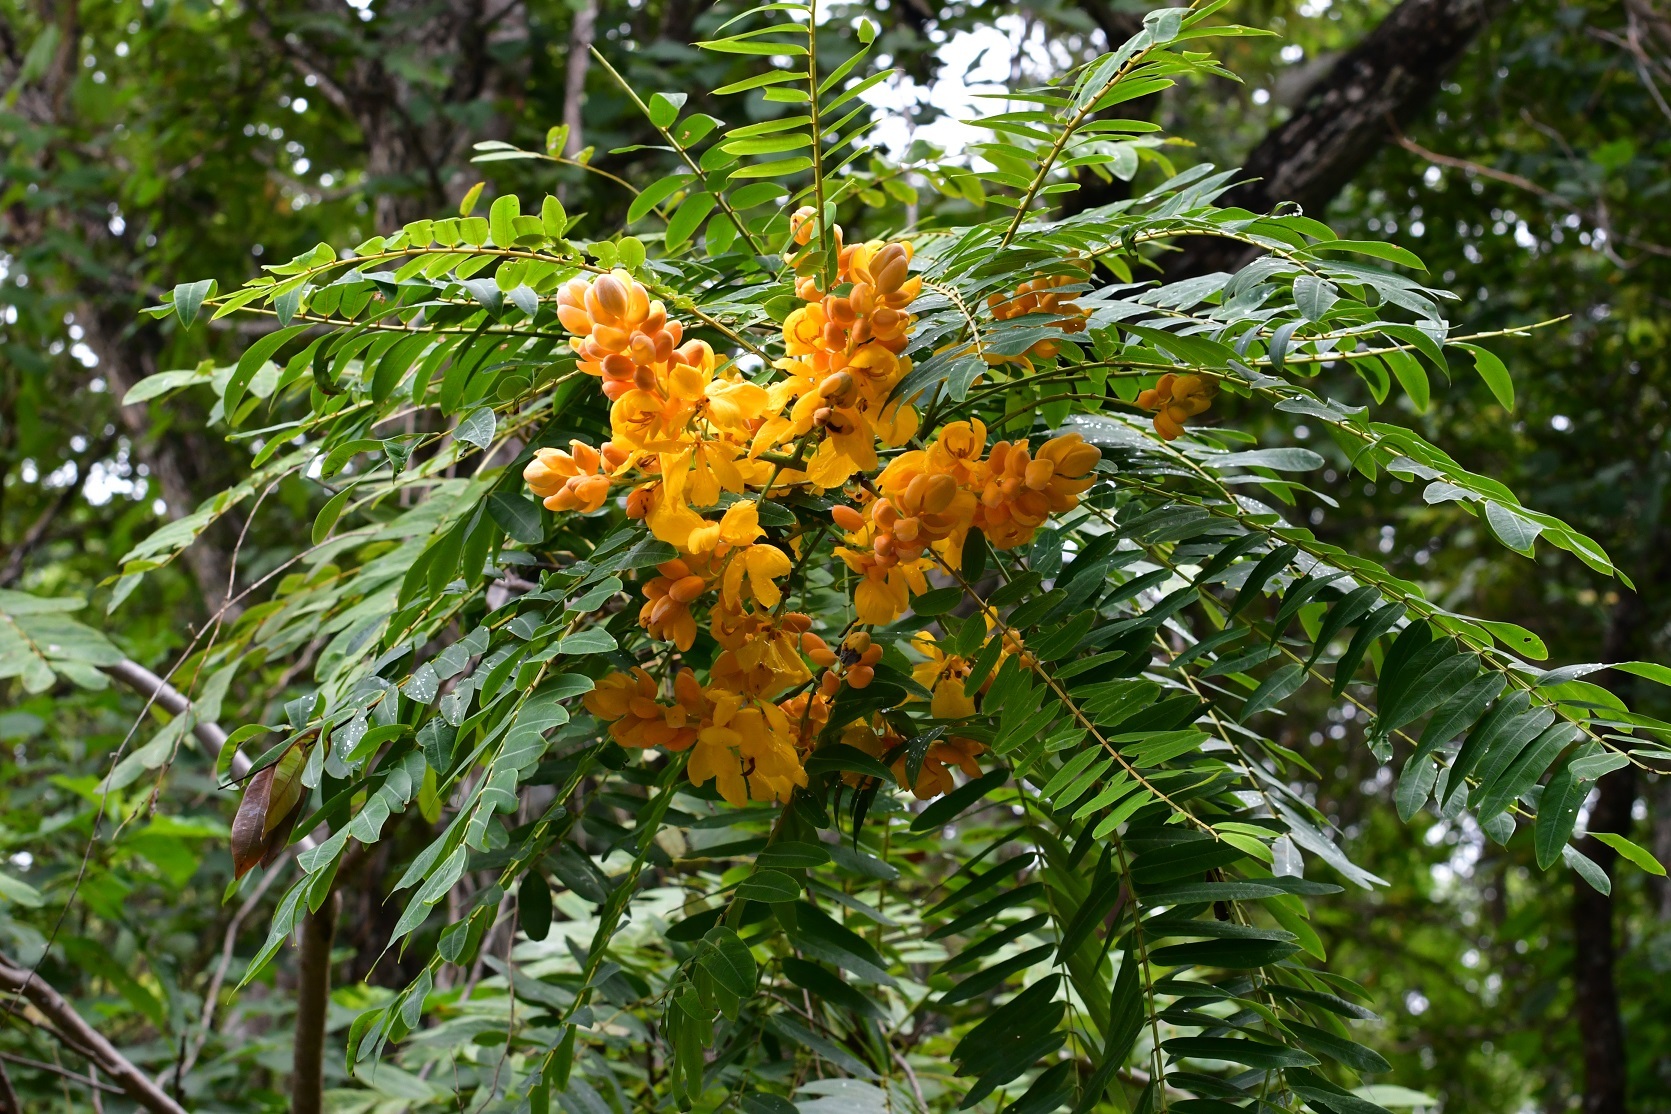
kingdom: Plantae
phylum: Tracheophyta
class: Magnoliopsida
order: Fabales
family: Fabaceae
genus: Senna
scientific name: Senna nicaraguensis
